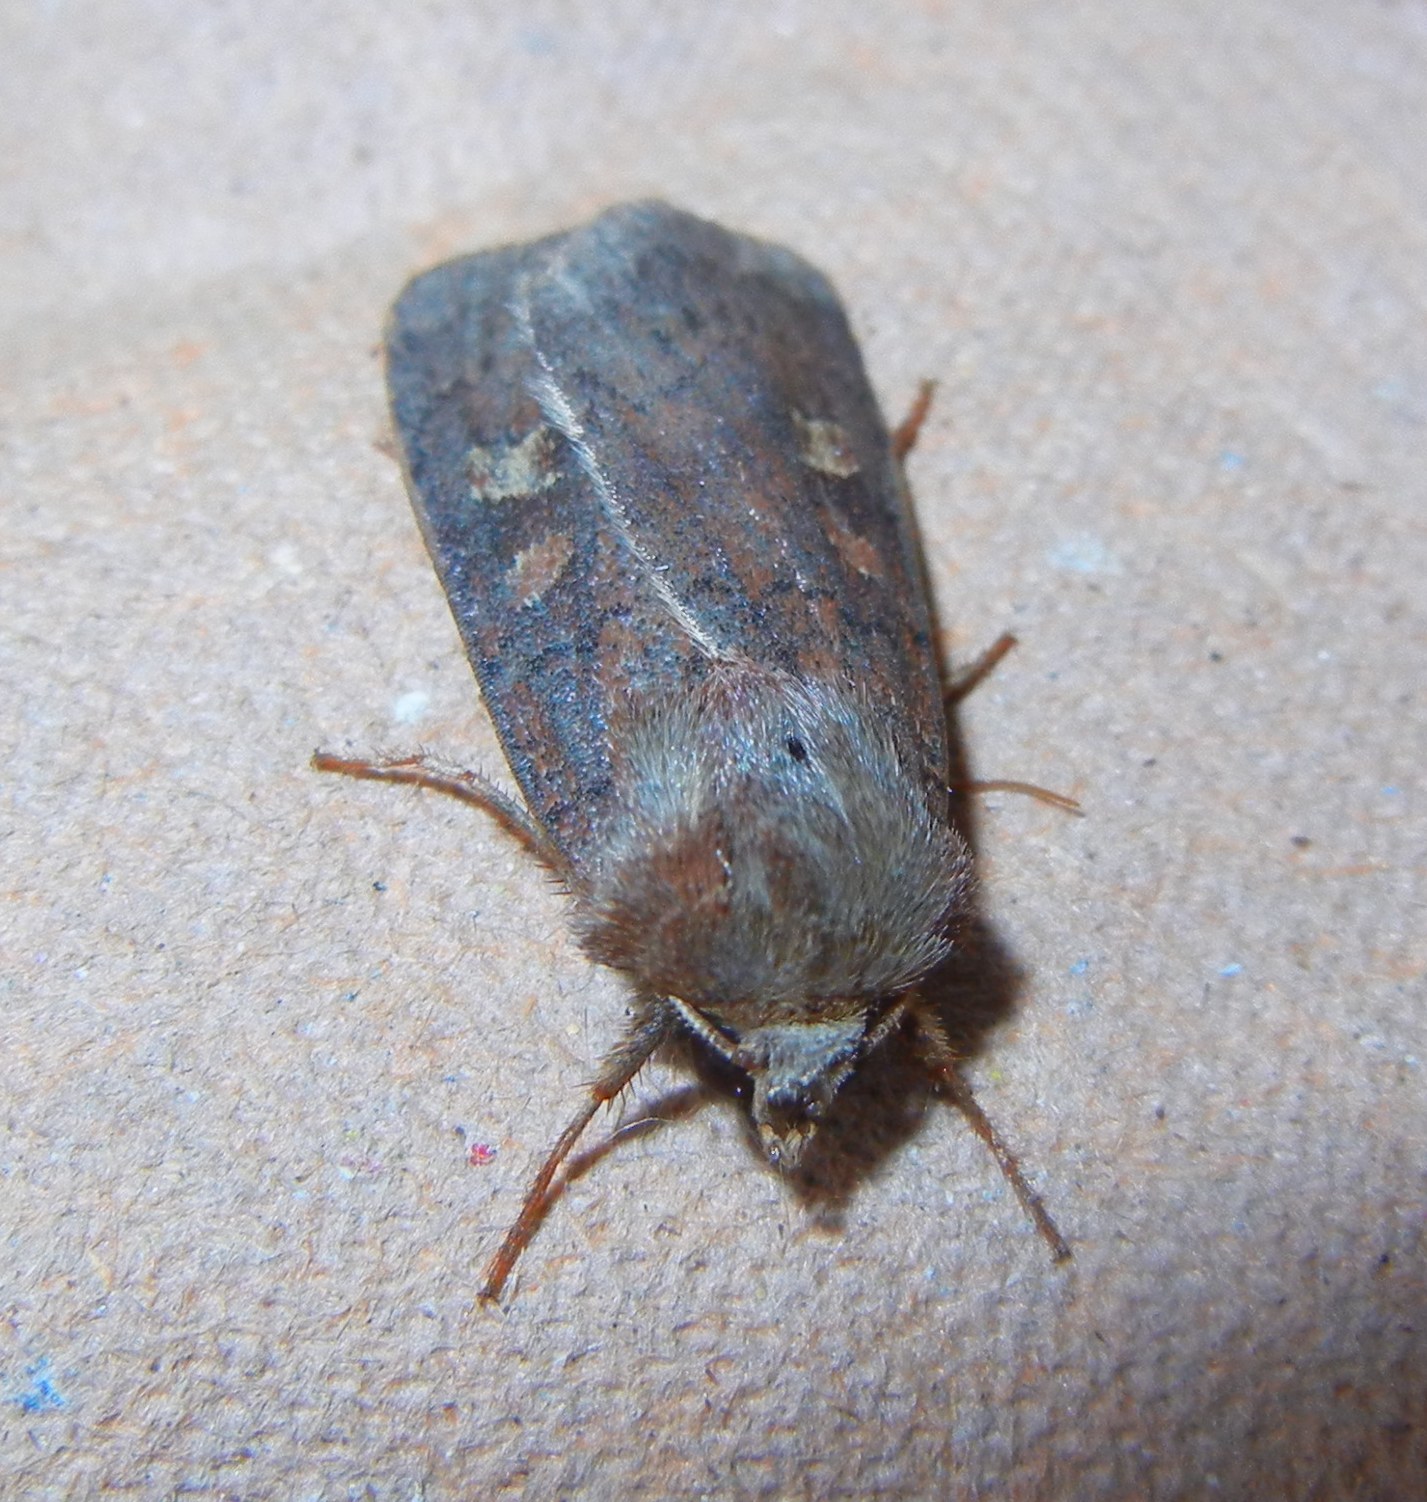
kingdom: Animalia
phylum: Arthropoda
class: Insecta
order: Lepidoptera
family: Noctuidae
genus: Xestia
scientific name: Xestia xanthographa
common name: Square-spot rustic
